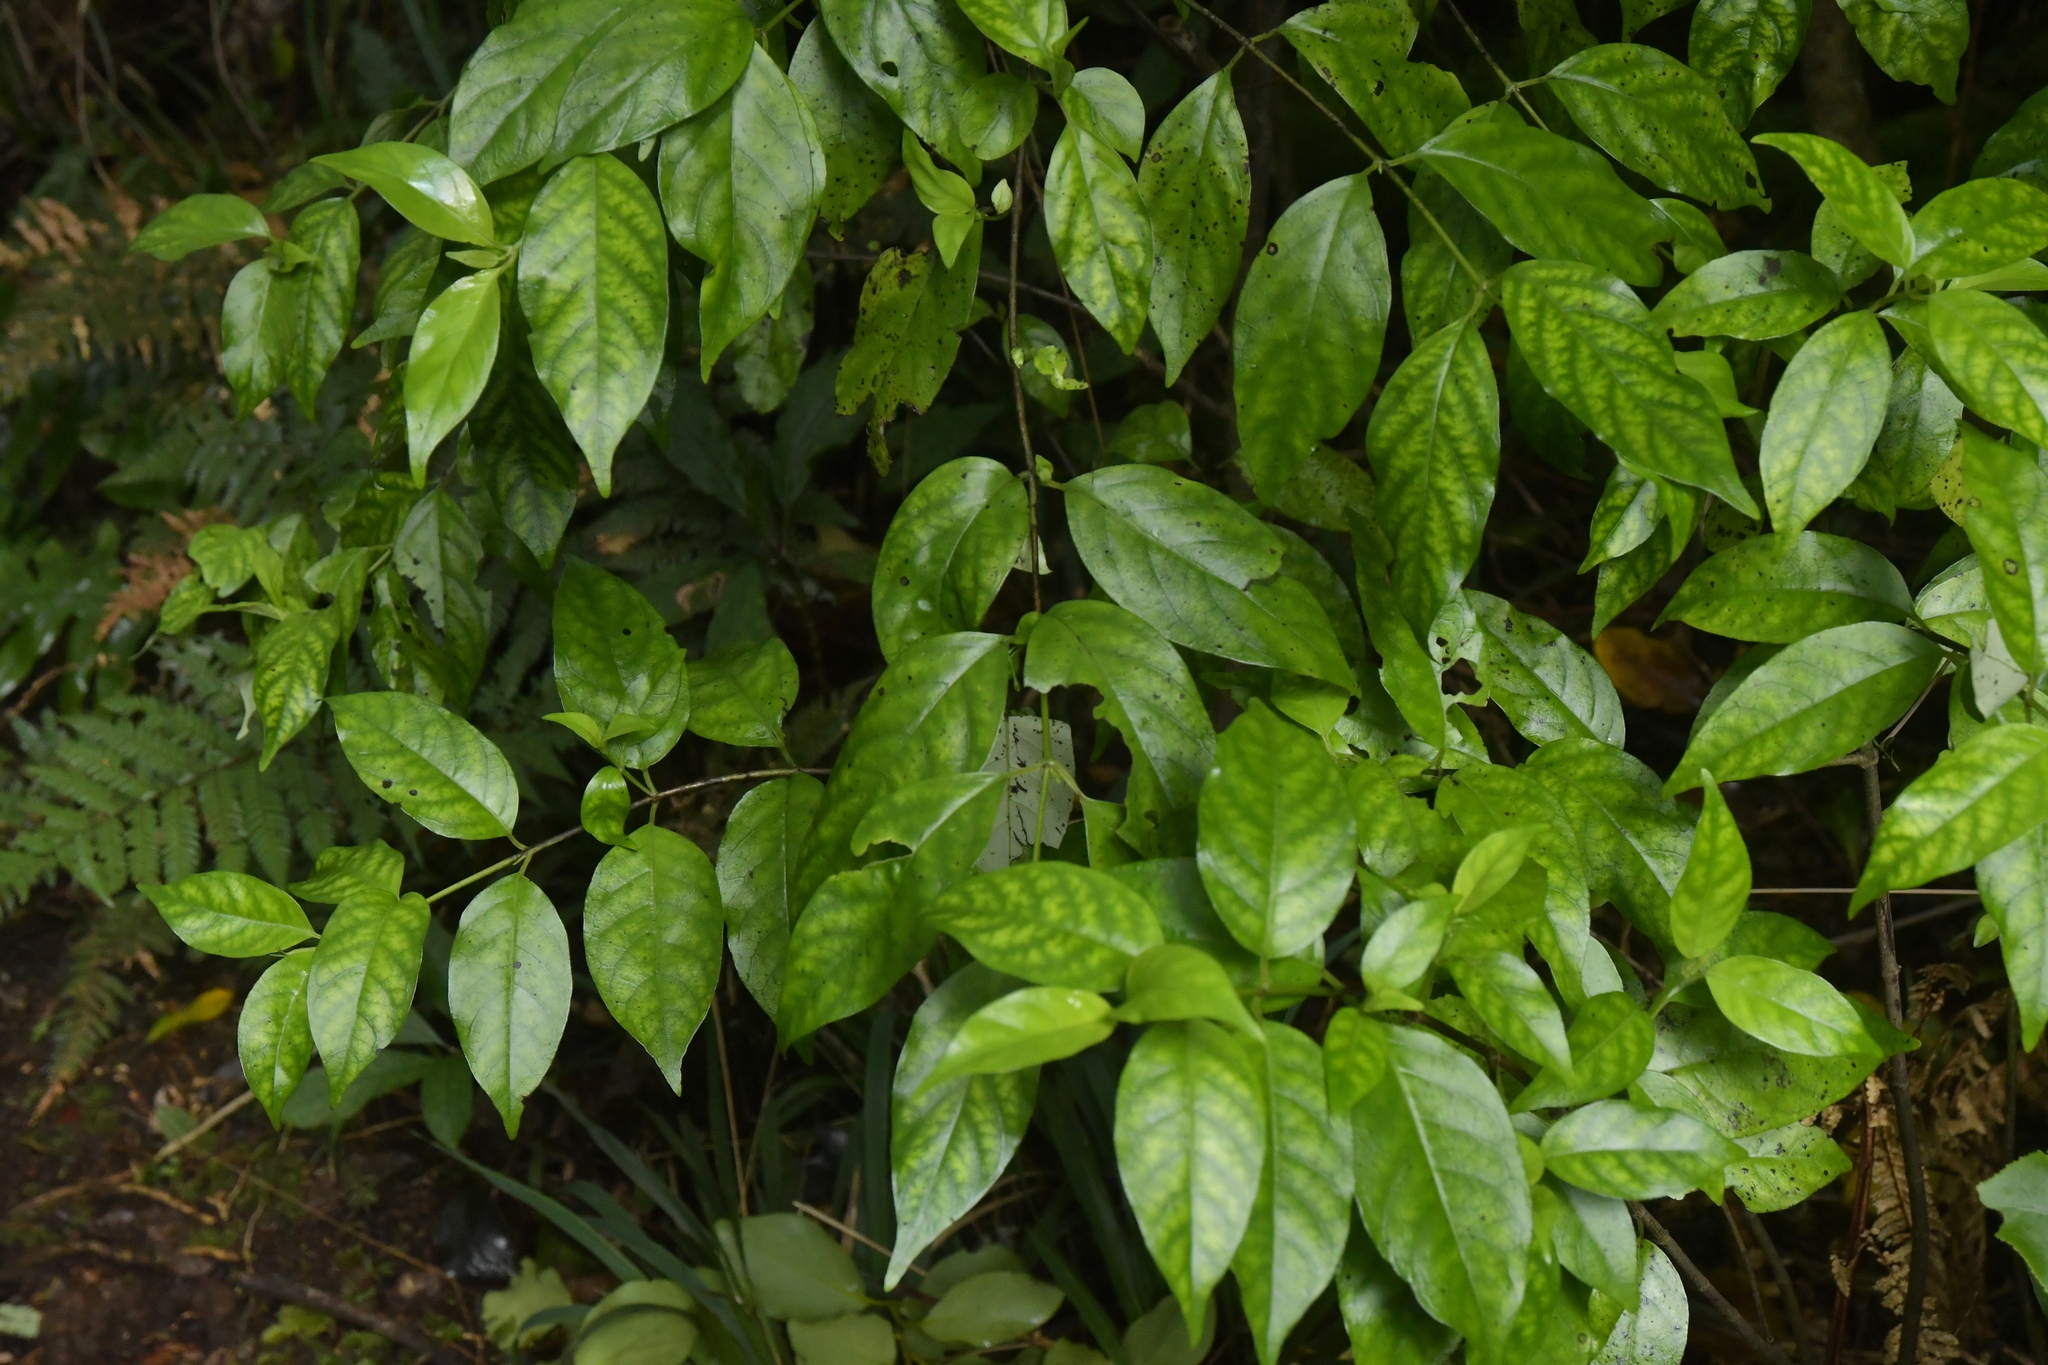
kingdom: Plantae
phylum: Tracheophyta
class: Magnoliopsida
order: Gentianales
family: Loganiaceae
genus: Geniostoma
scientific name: Geniostoma ligustrifolium
